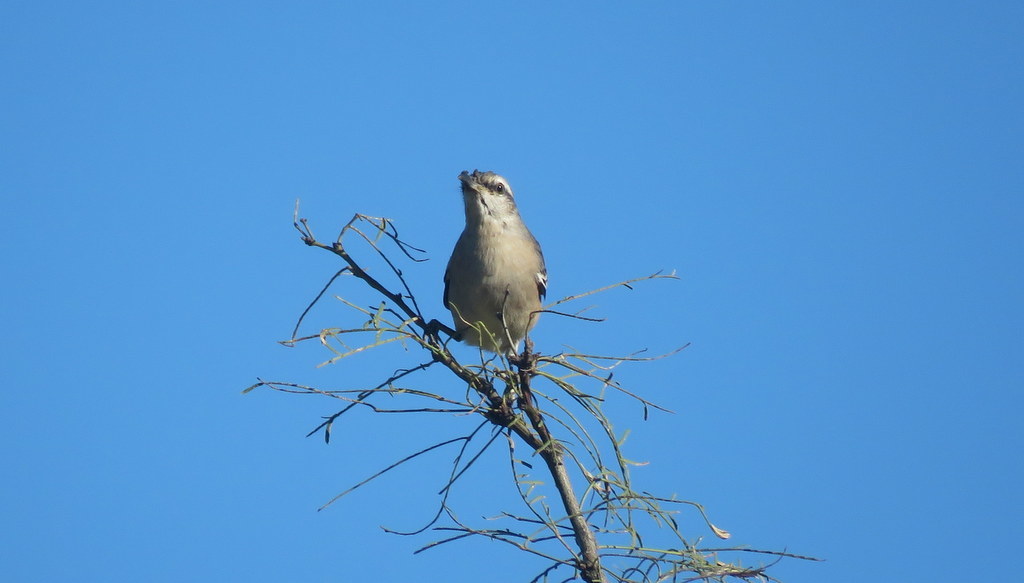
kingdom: Animalia
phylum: Chordata
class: Aves
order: Passeriformes
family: Mimidae
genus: Mimus
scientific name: Mimus triurus
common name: White-banded mockingbird
